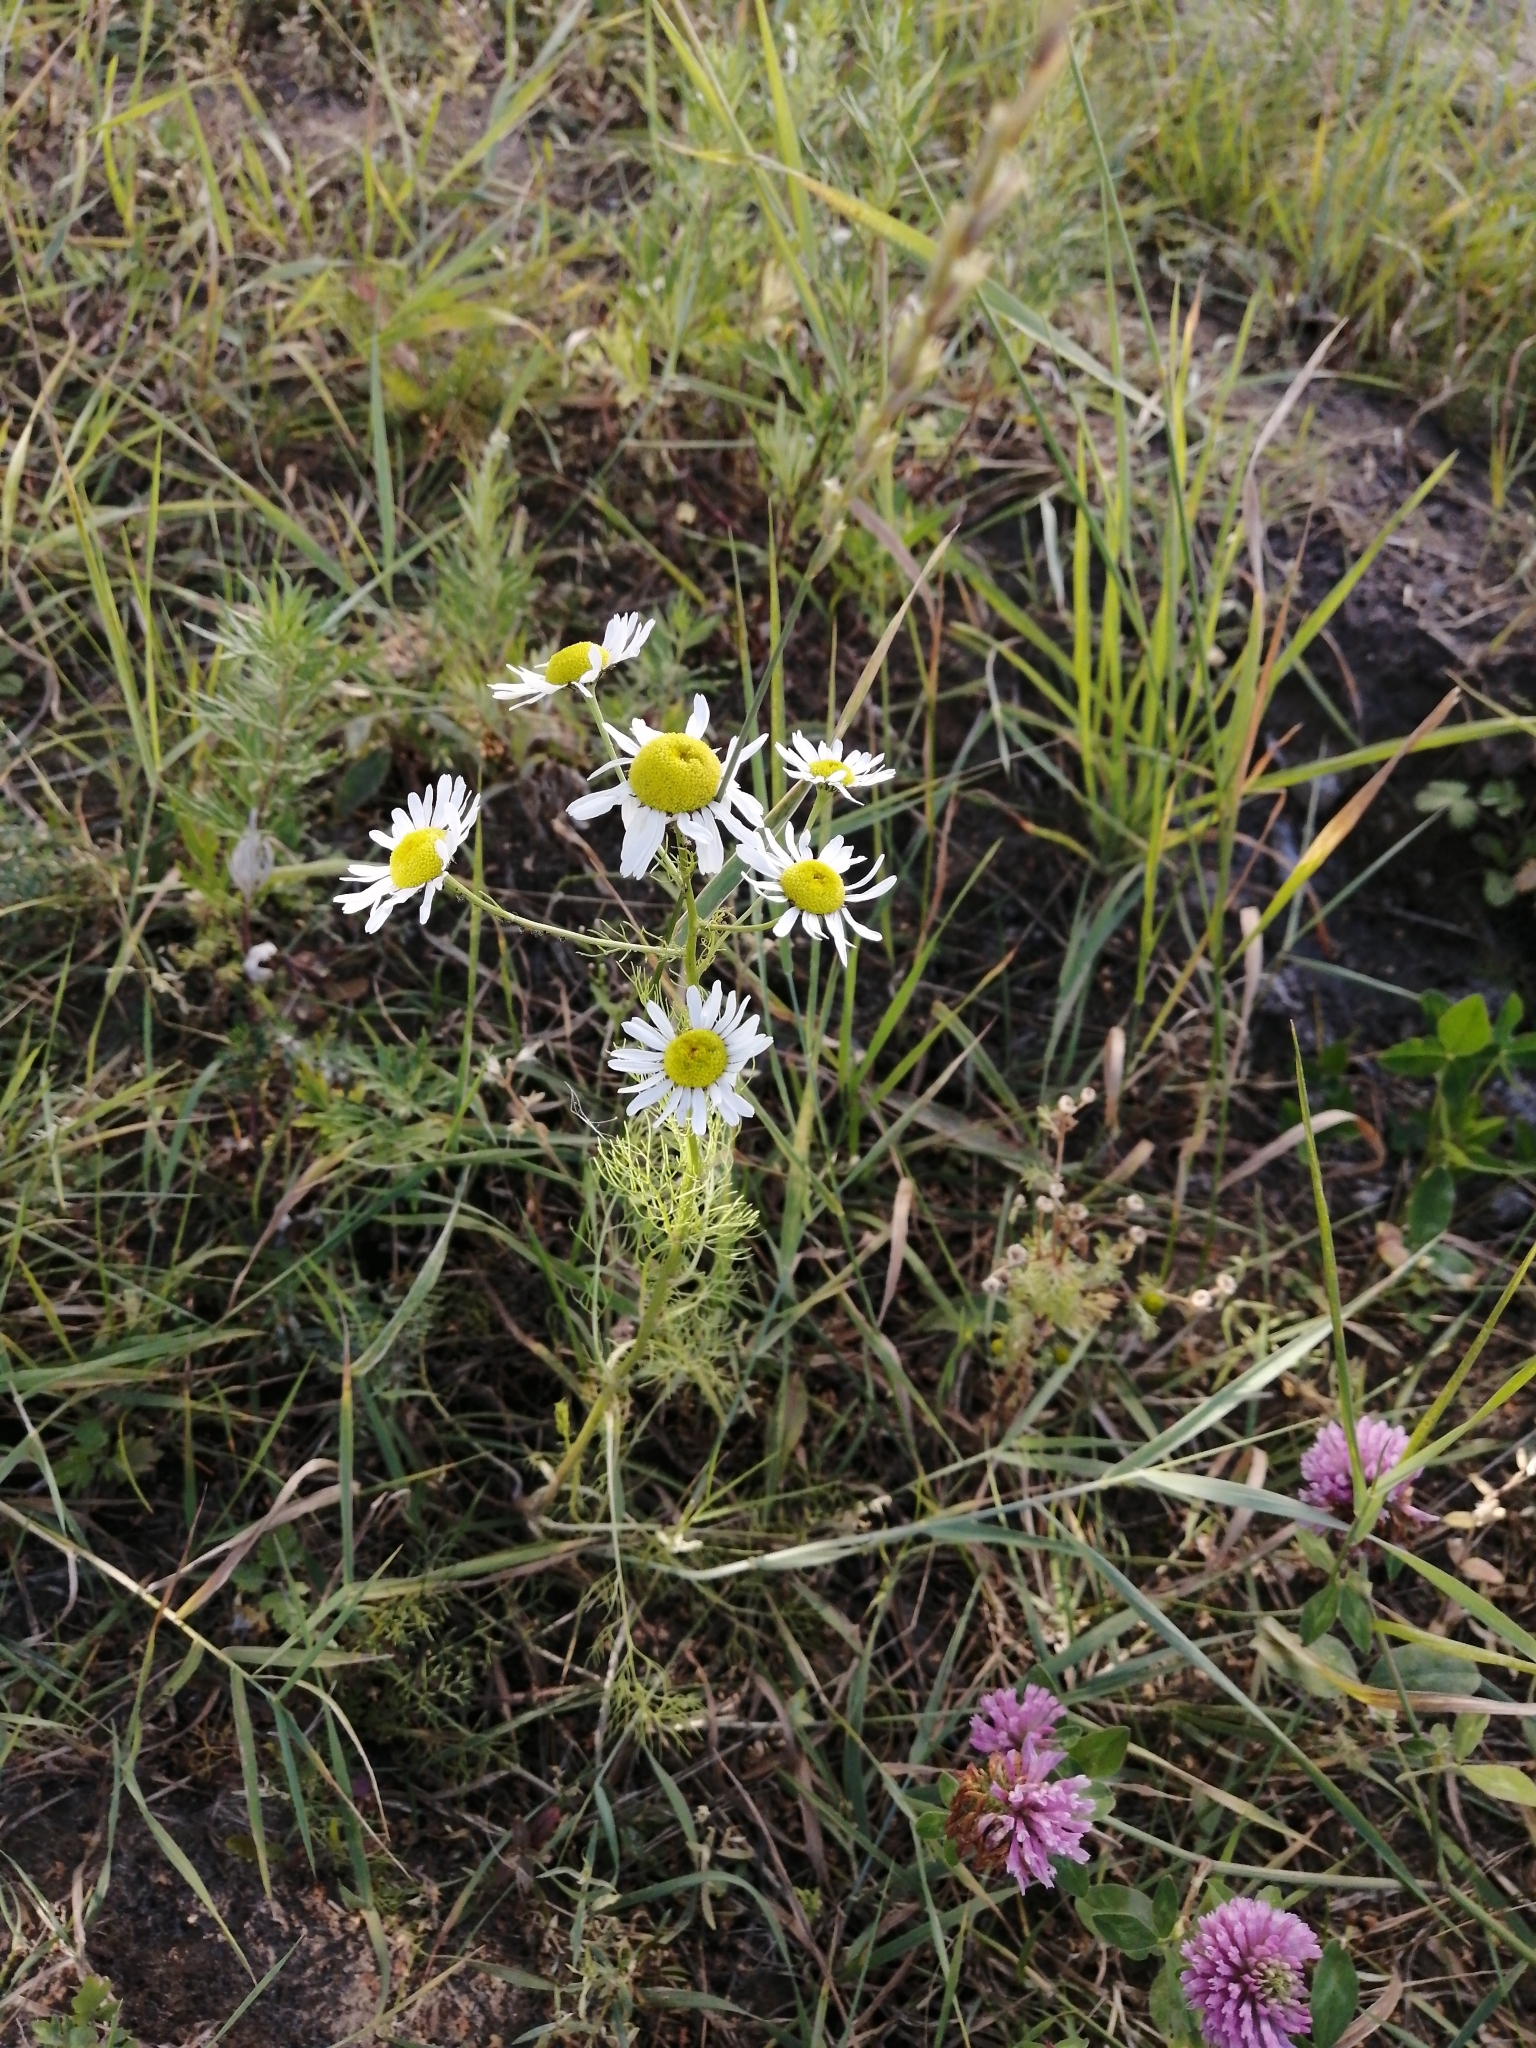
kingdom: Plantae
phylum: Tracheophyta
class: Magnoliopsida
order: Asterales
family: Asteraceae
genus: Tripleurospermum
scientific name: Tripleurospermum inodorum
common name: Scentless mayweed
